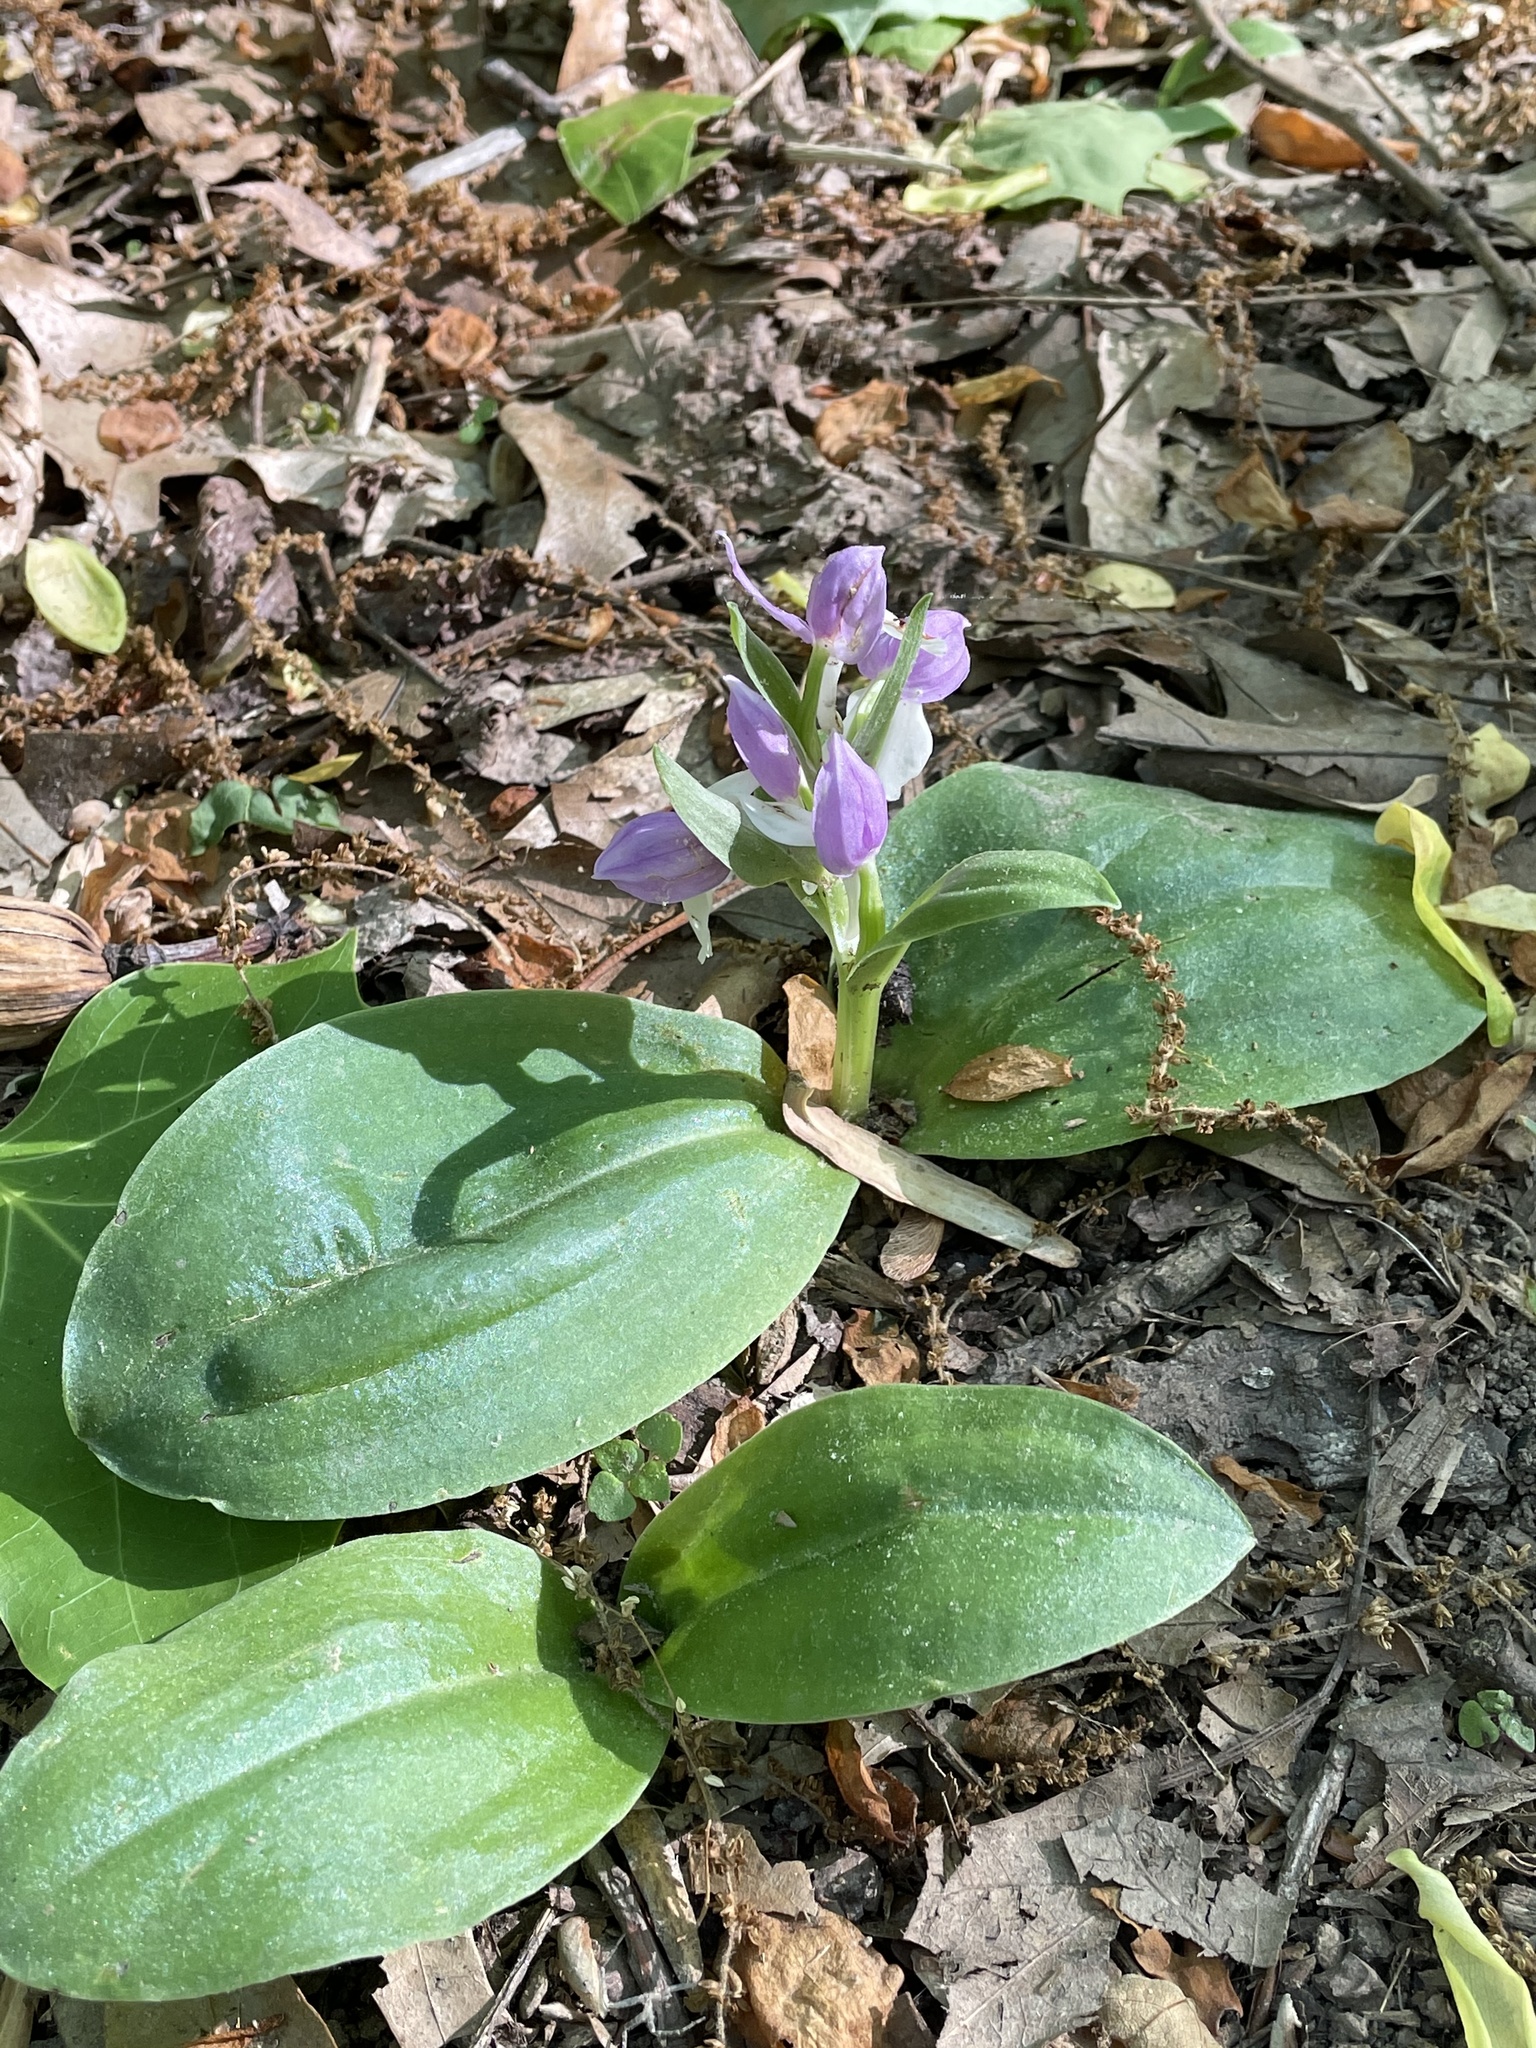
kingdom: Plantae
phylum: Tracheophyta
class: Liliopsida
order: Asparagales
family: Orchidaceae
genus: Galearis
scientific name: Galearis spectabilis
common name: Purple-hooded orchis
